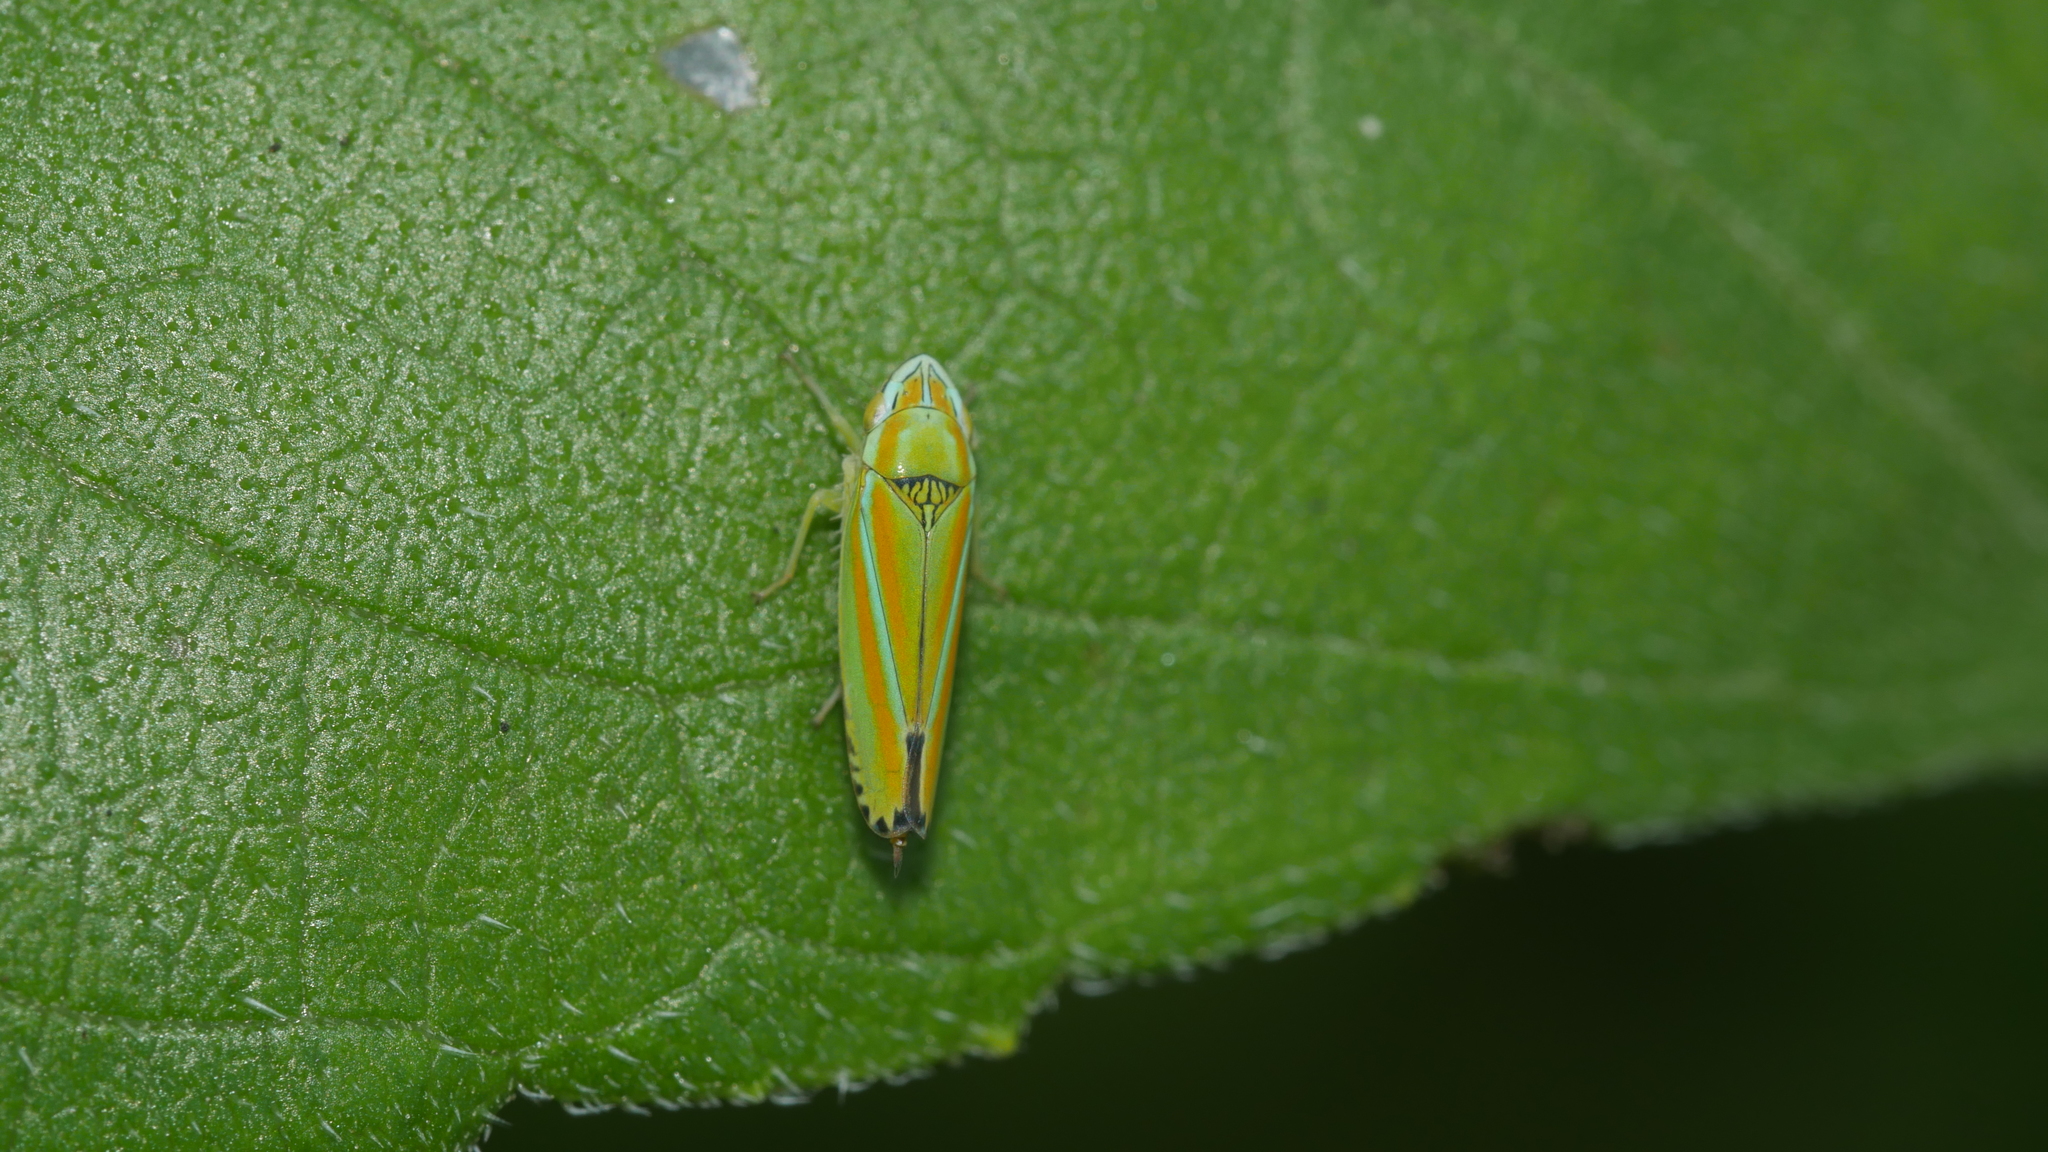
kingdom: Animalia
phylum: Arthropoda
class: Insecta
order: Hemiptera
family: Cicadellidae
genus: Graphocephala
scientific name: Graphocephala versuta
